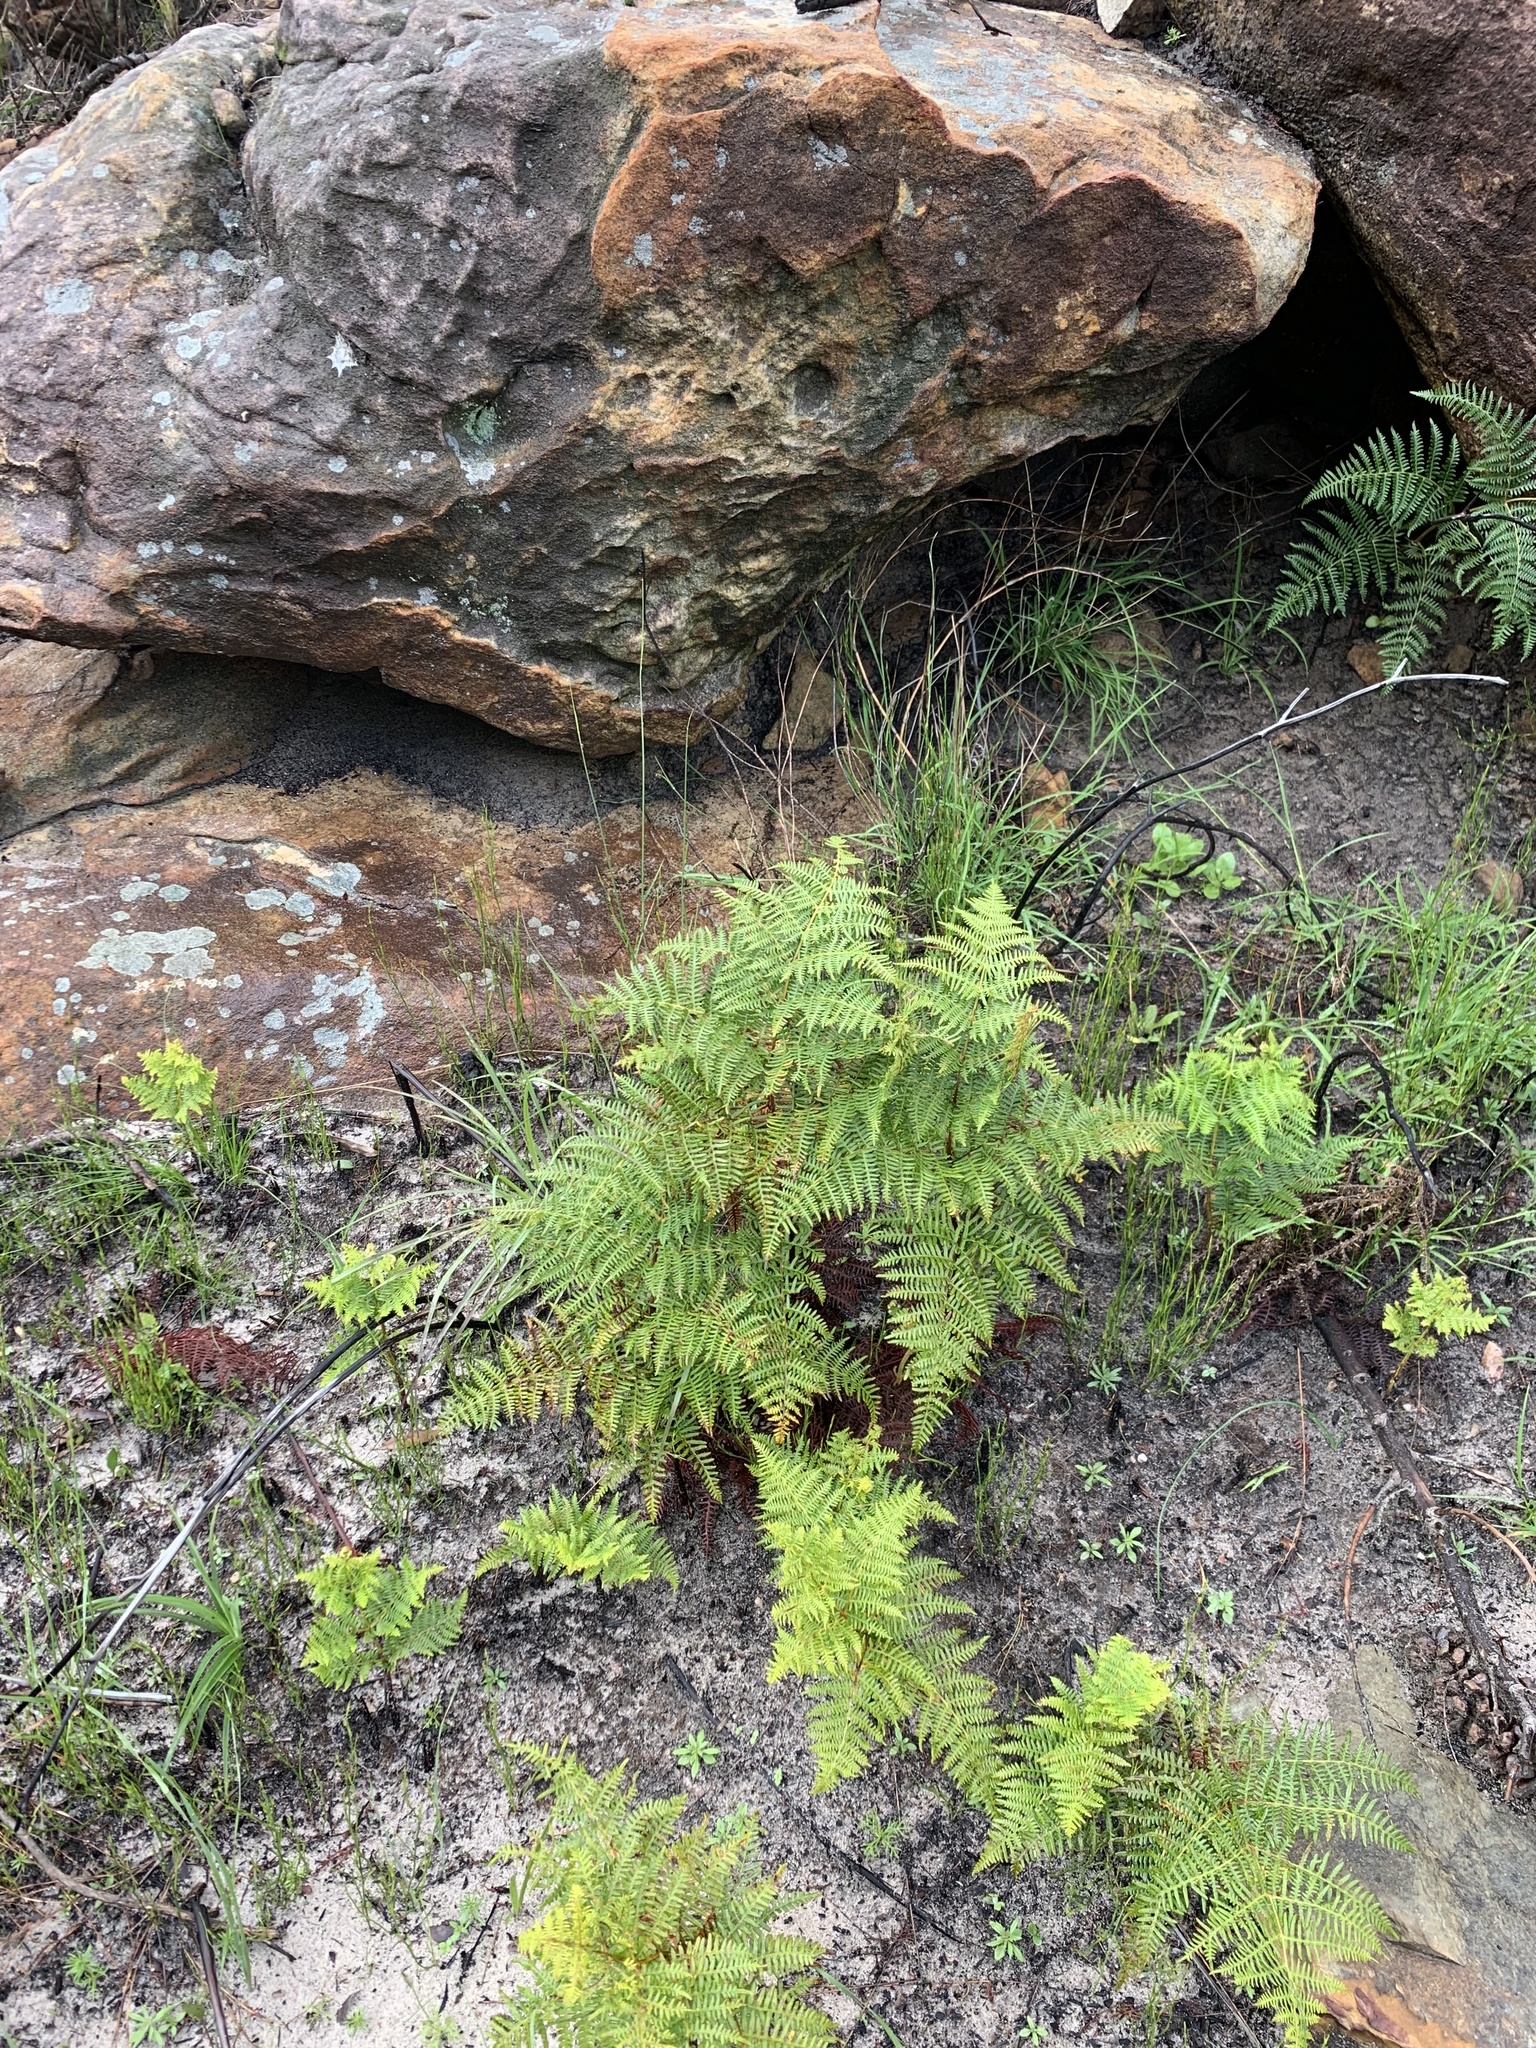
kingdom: Plantae
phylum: Tracheophyta
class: Polypodiopsida
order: Polypodiales
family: Dennstaedtiaceae
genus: Pteridium
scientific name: Pteridium aquilinum
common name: Bracken
